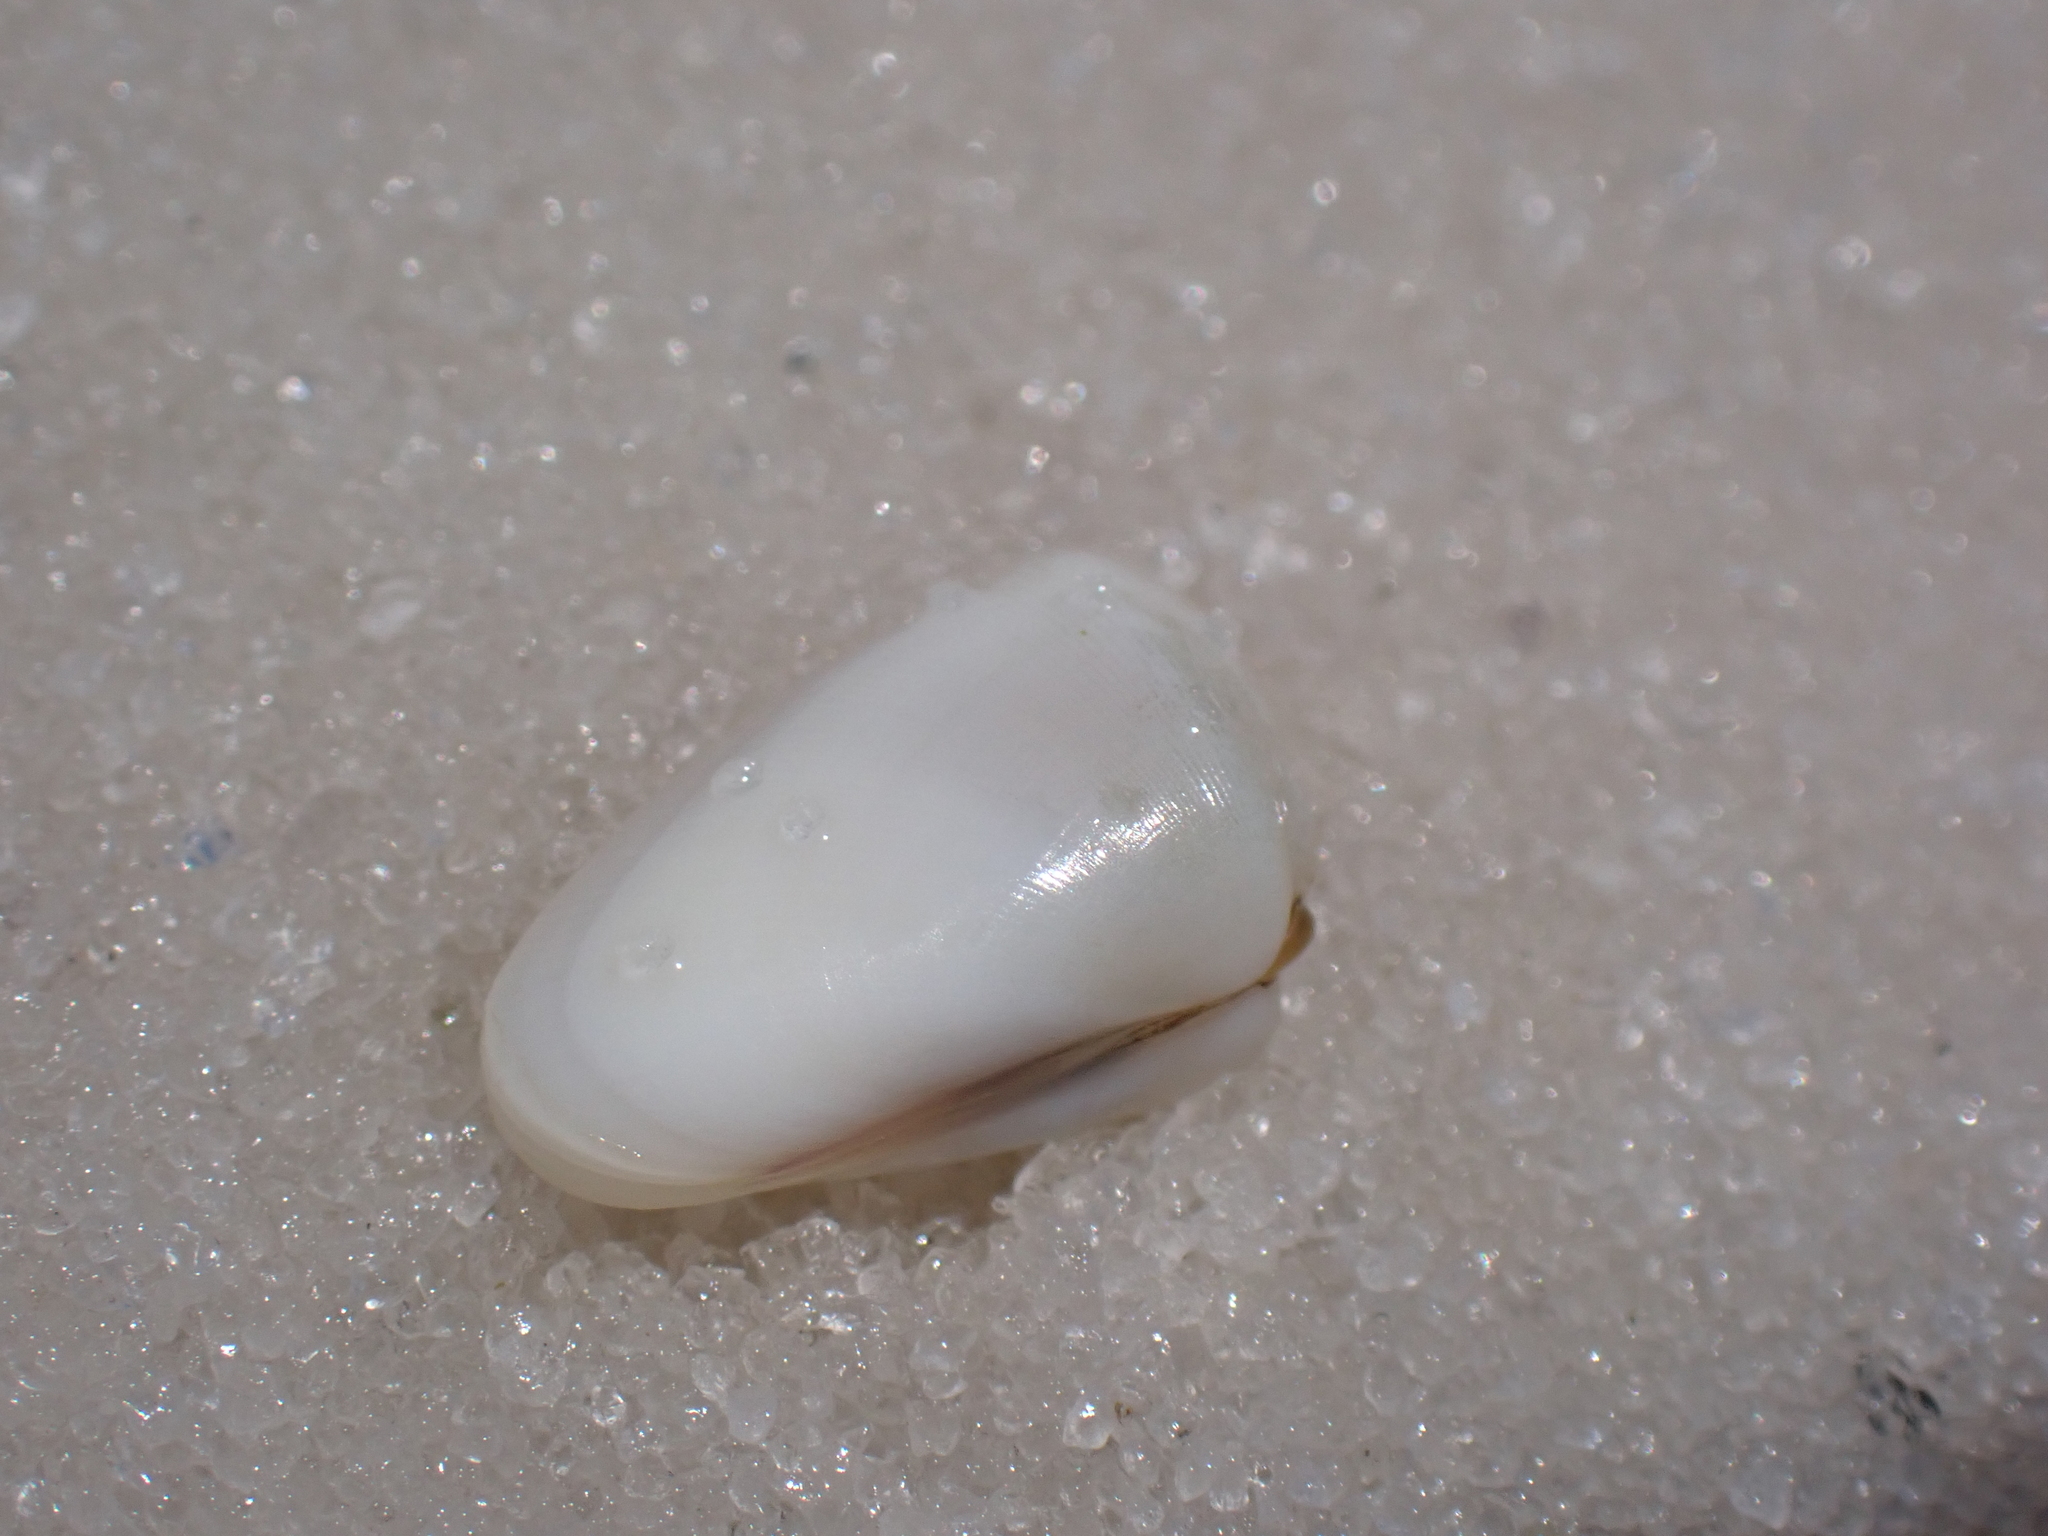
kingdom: Animalia
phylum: Mollusca
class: Bivalvia
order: Cardiida
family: Donacidae
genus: Donax
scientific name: Donax variabilis
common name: Butterfly shell
